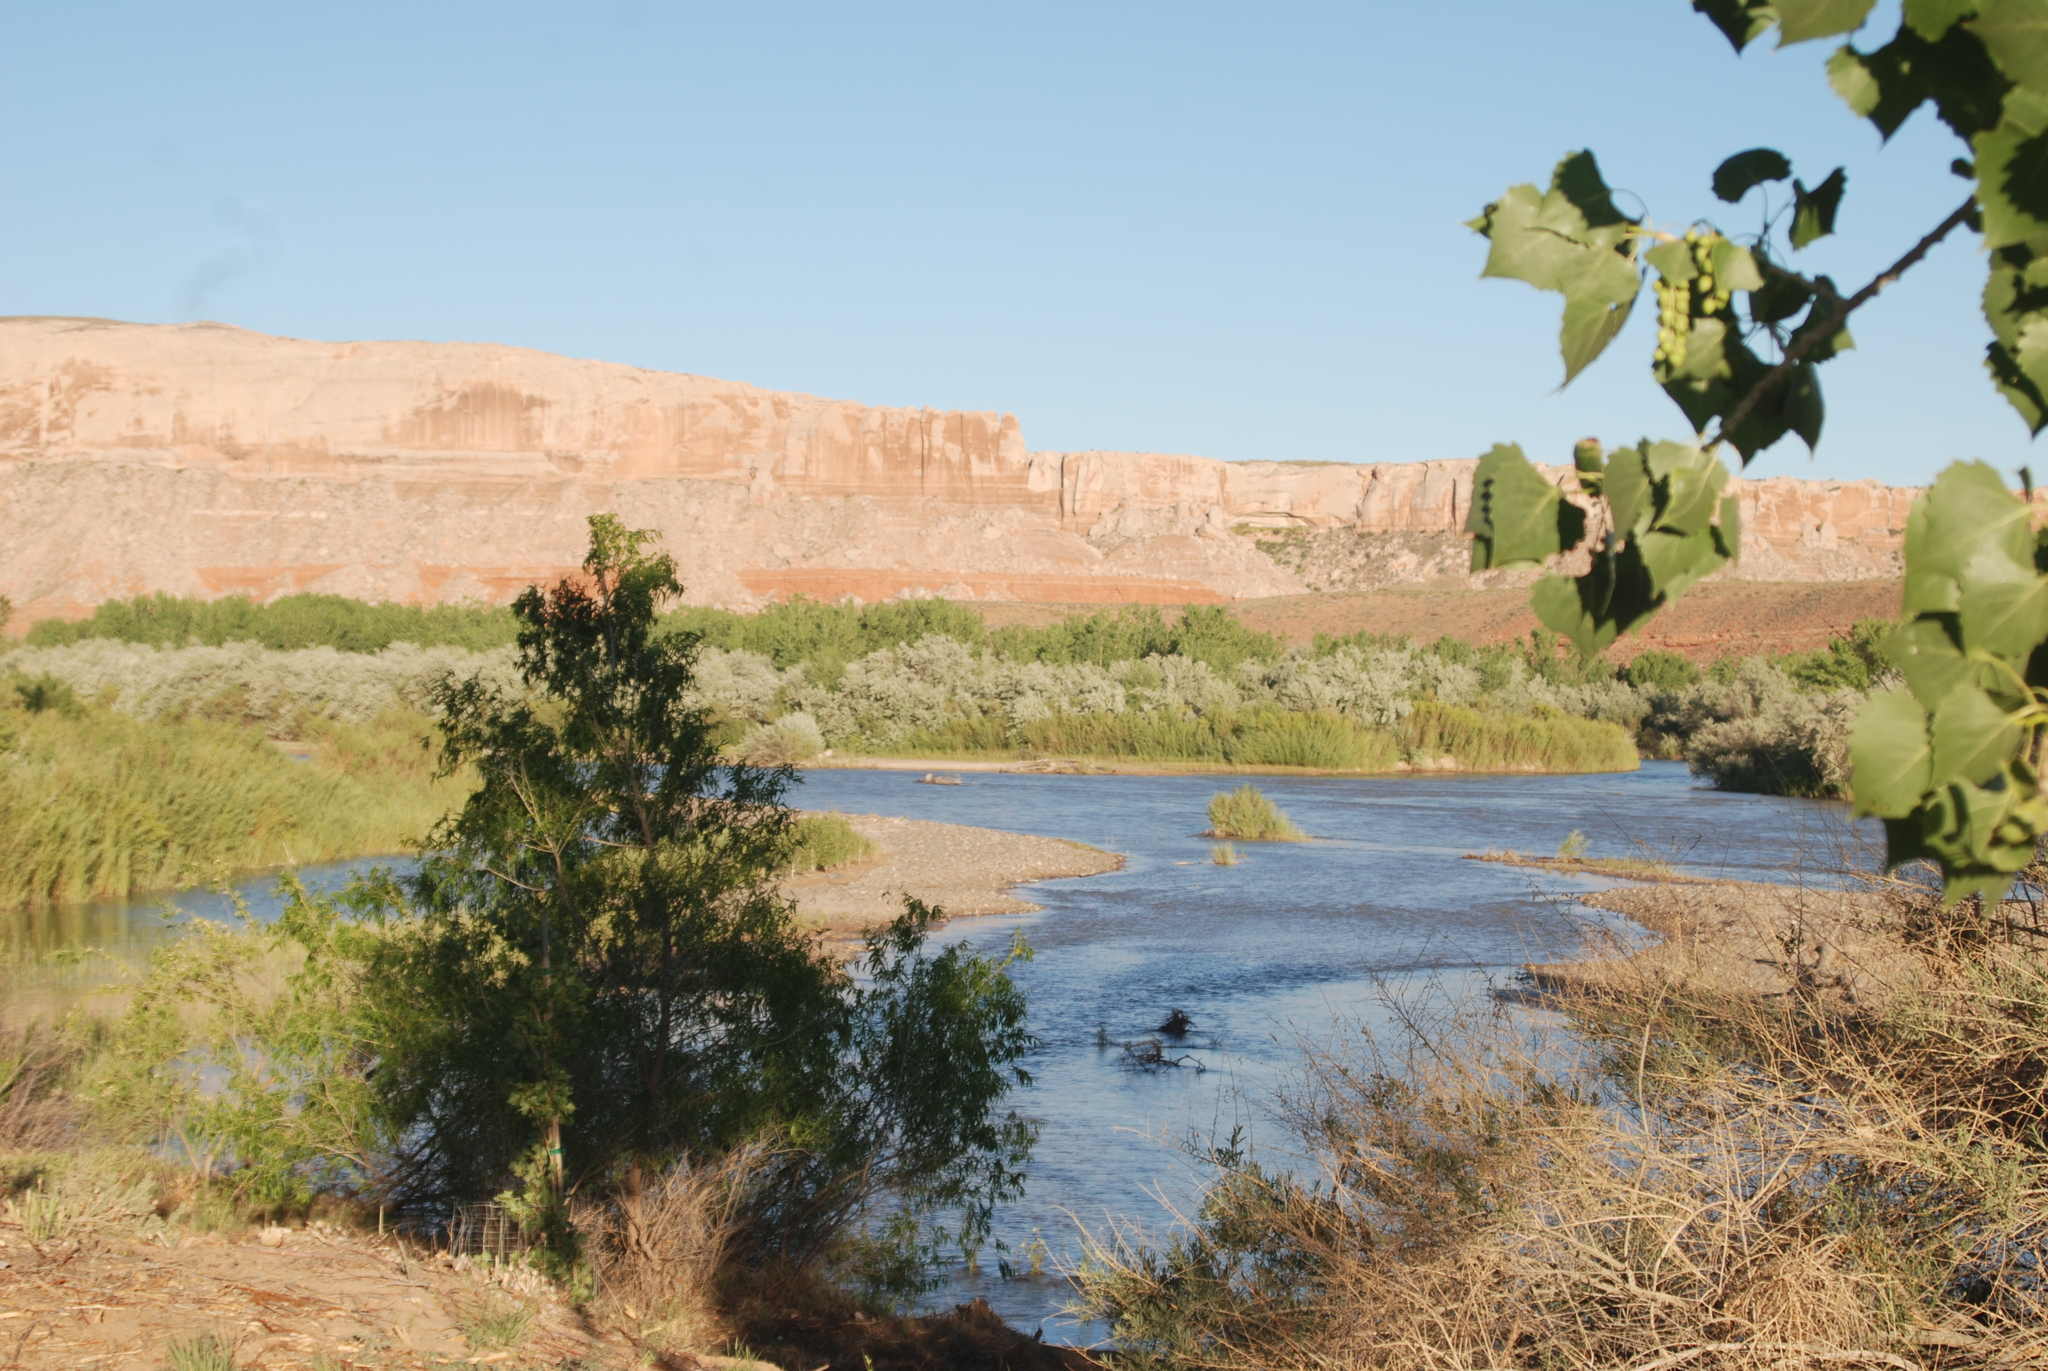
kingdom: Plantae
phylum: Tracheophyta
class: Magnoliopsida
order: Malpighiales
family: Salicaceae
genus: Populus
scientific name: Populus fremontii
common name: Fremont's cottonwood
